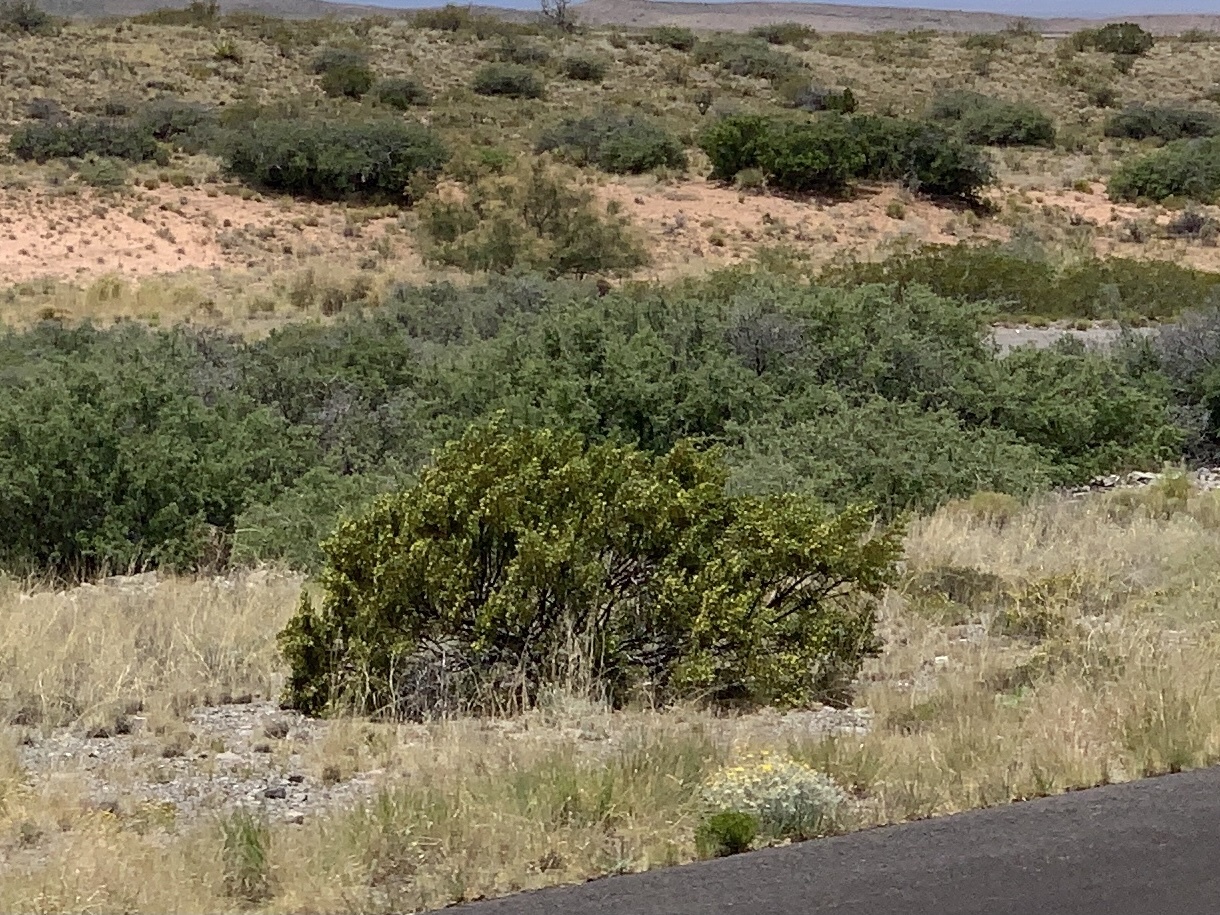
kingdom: Plantae
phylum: Tracheophyta
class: Magnoliopsida
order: Zygophyllales
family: Zygophyllaceae
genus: Larrea
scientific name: Larrea tridentata
